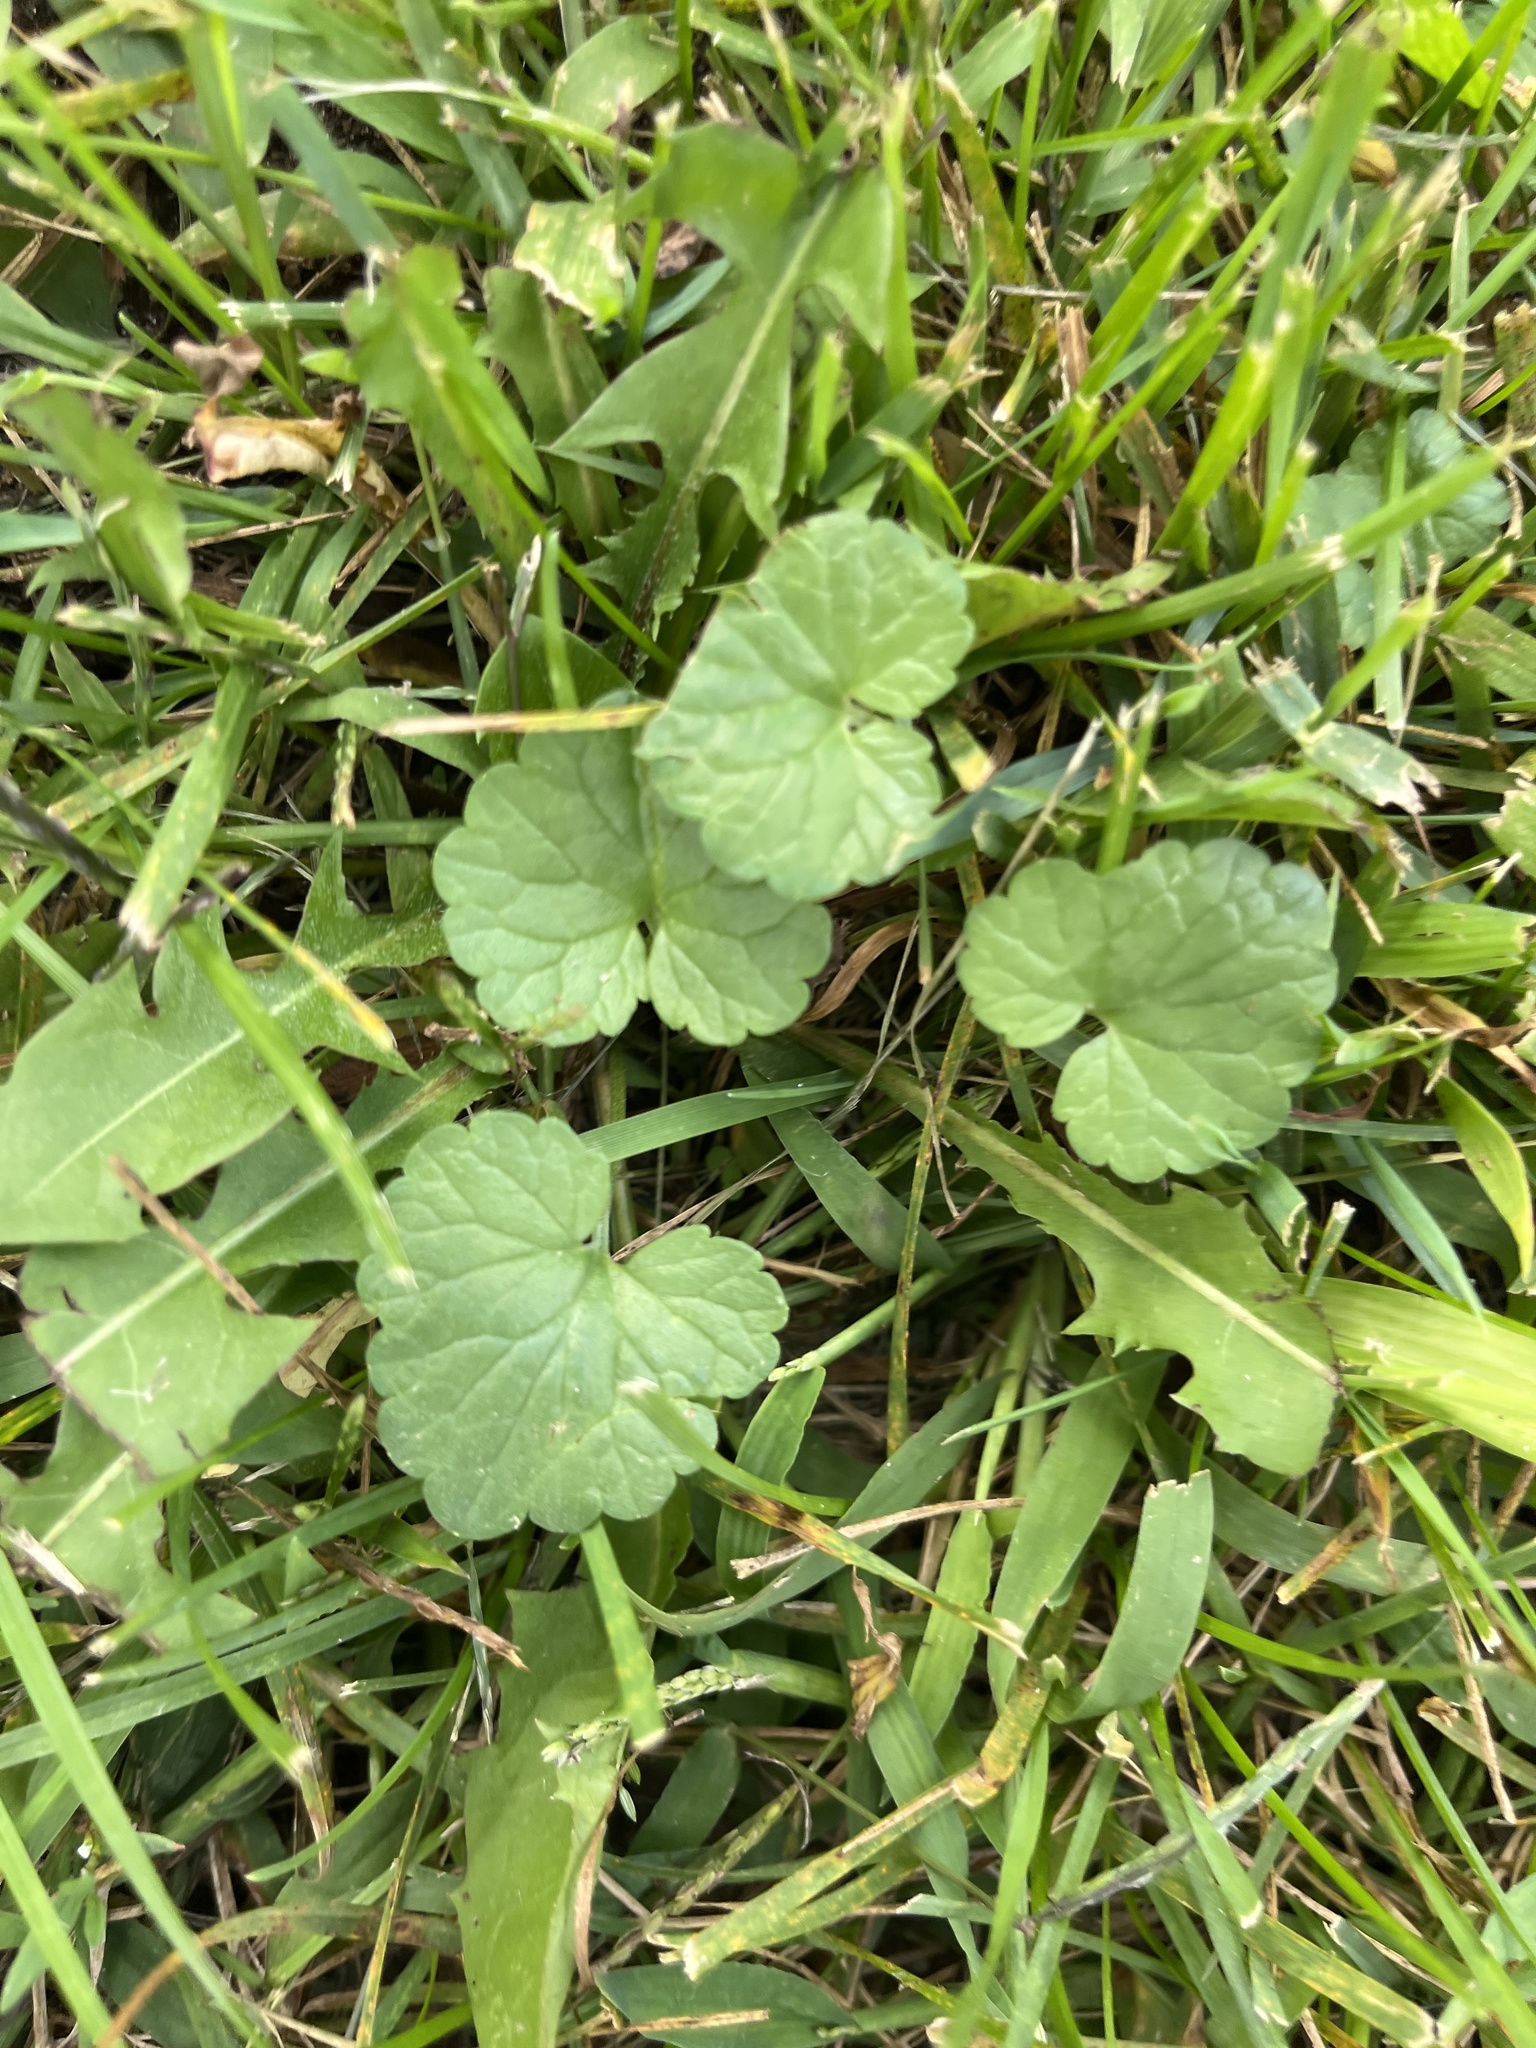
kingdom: Plantae
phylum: Tracheophyta
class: Magnoliopsida
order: Lamiales
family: Lamiaceae
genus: Glechoma
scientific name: Glechoma hederacea
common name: Ground ivy
